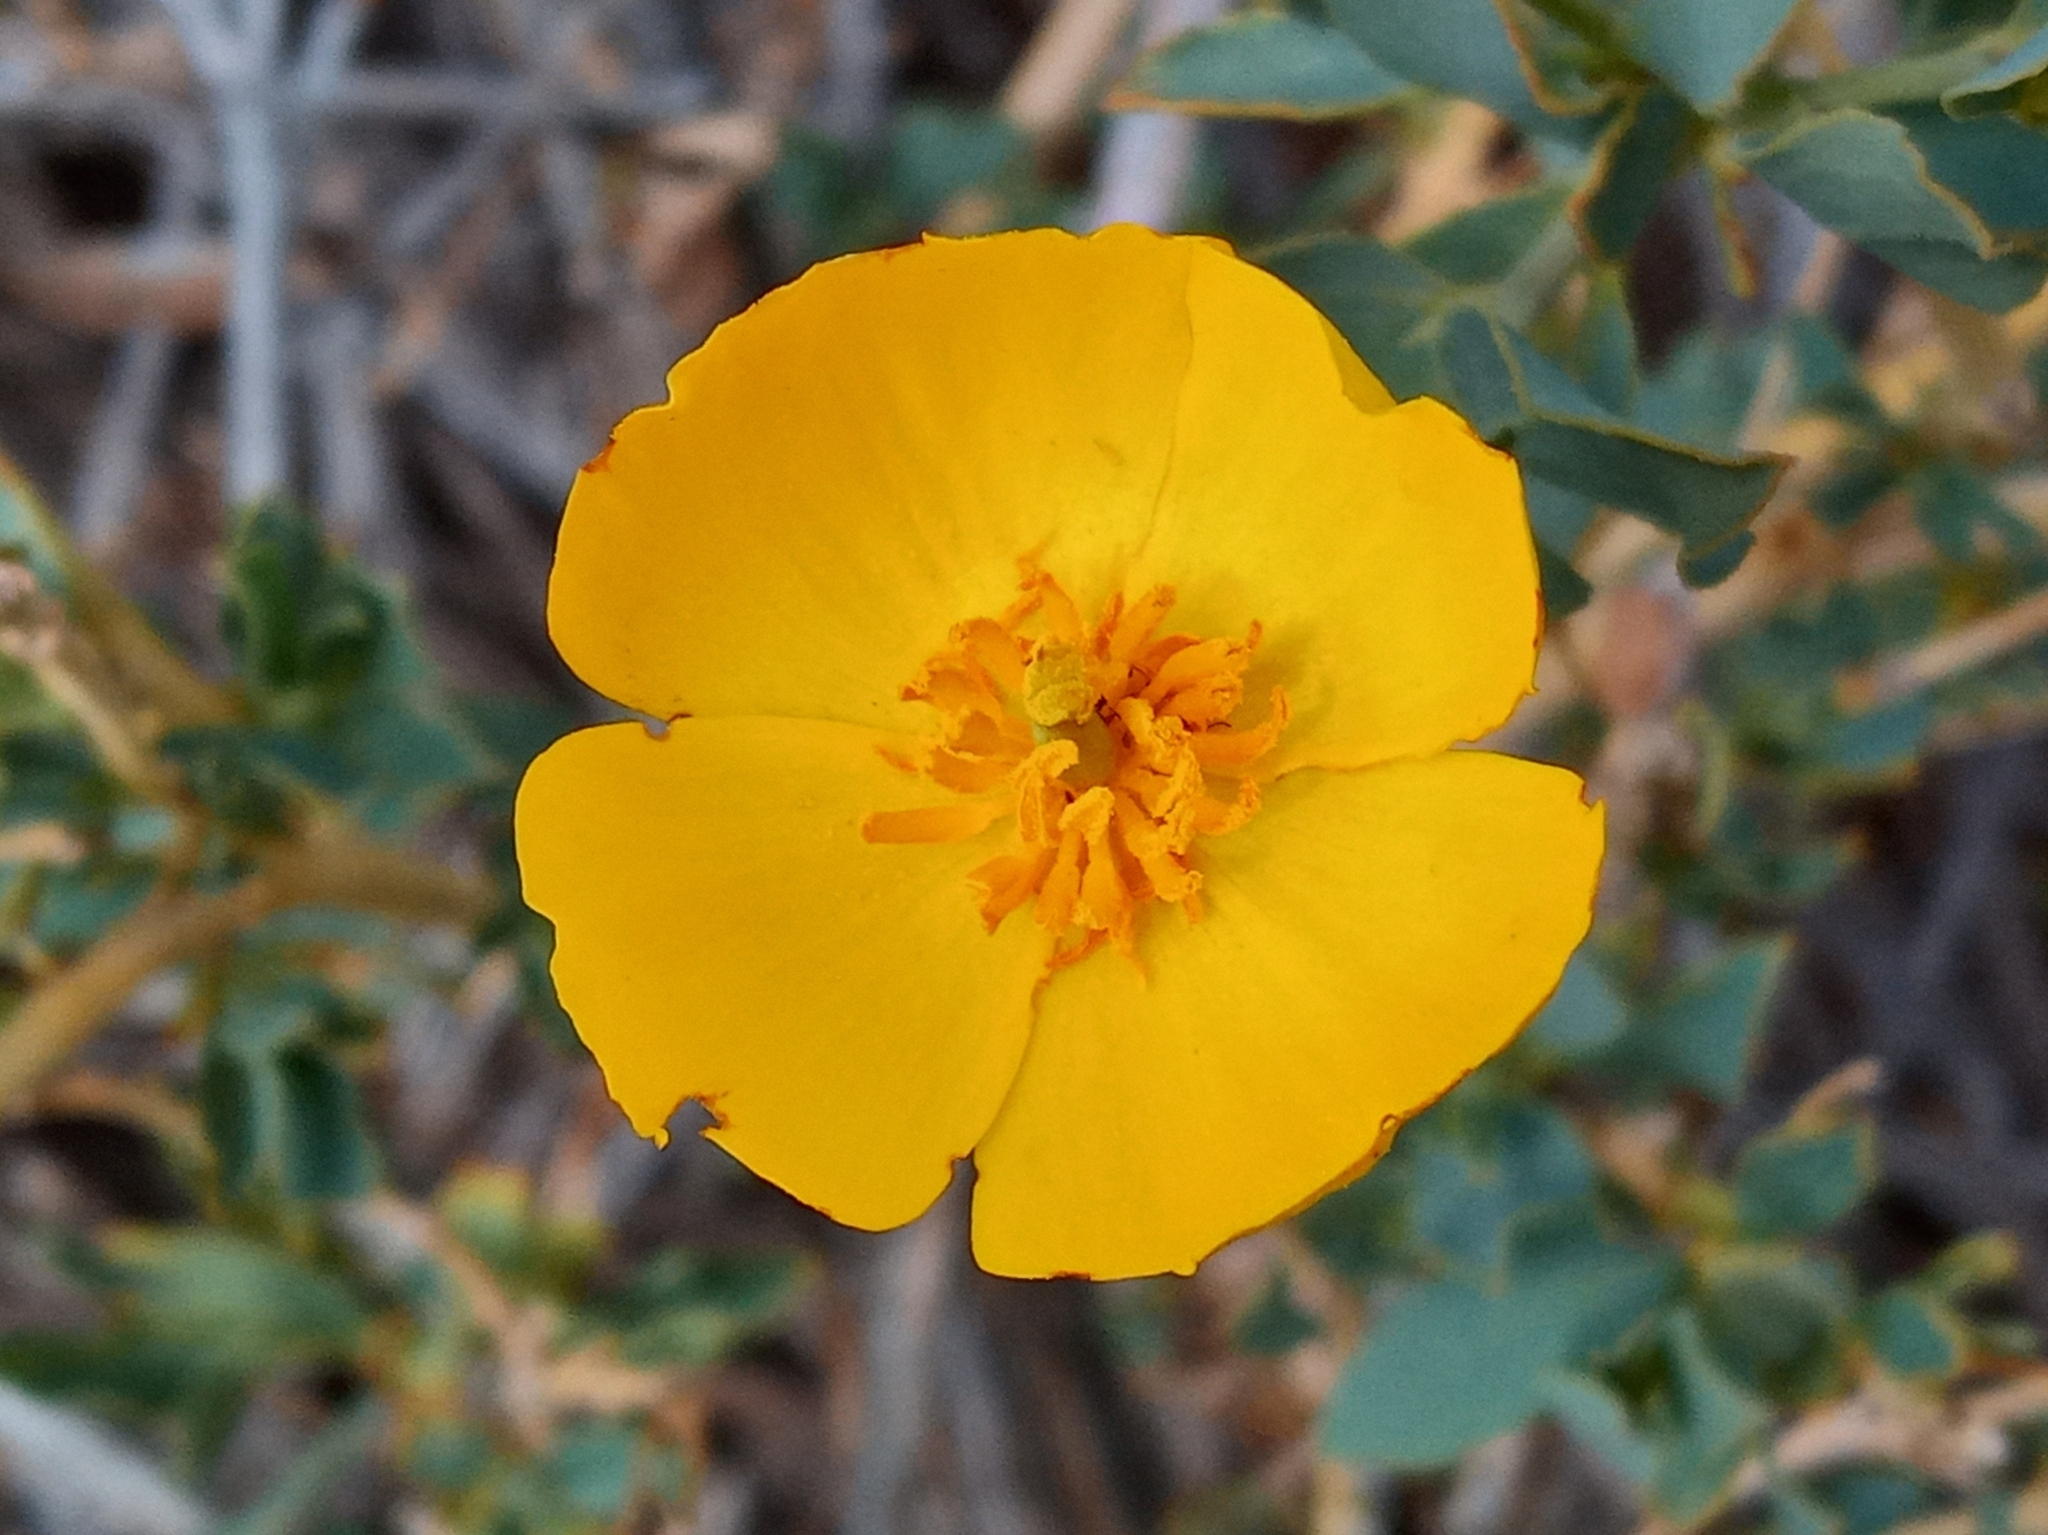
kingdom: Plantae
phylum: Tracheophyta
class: Magnoliopsida
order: Ranunculales
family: Papaveraceae
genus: Dendromecon
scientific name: Dendromecon rigida
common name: Tree poppy
